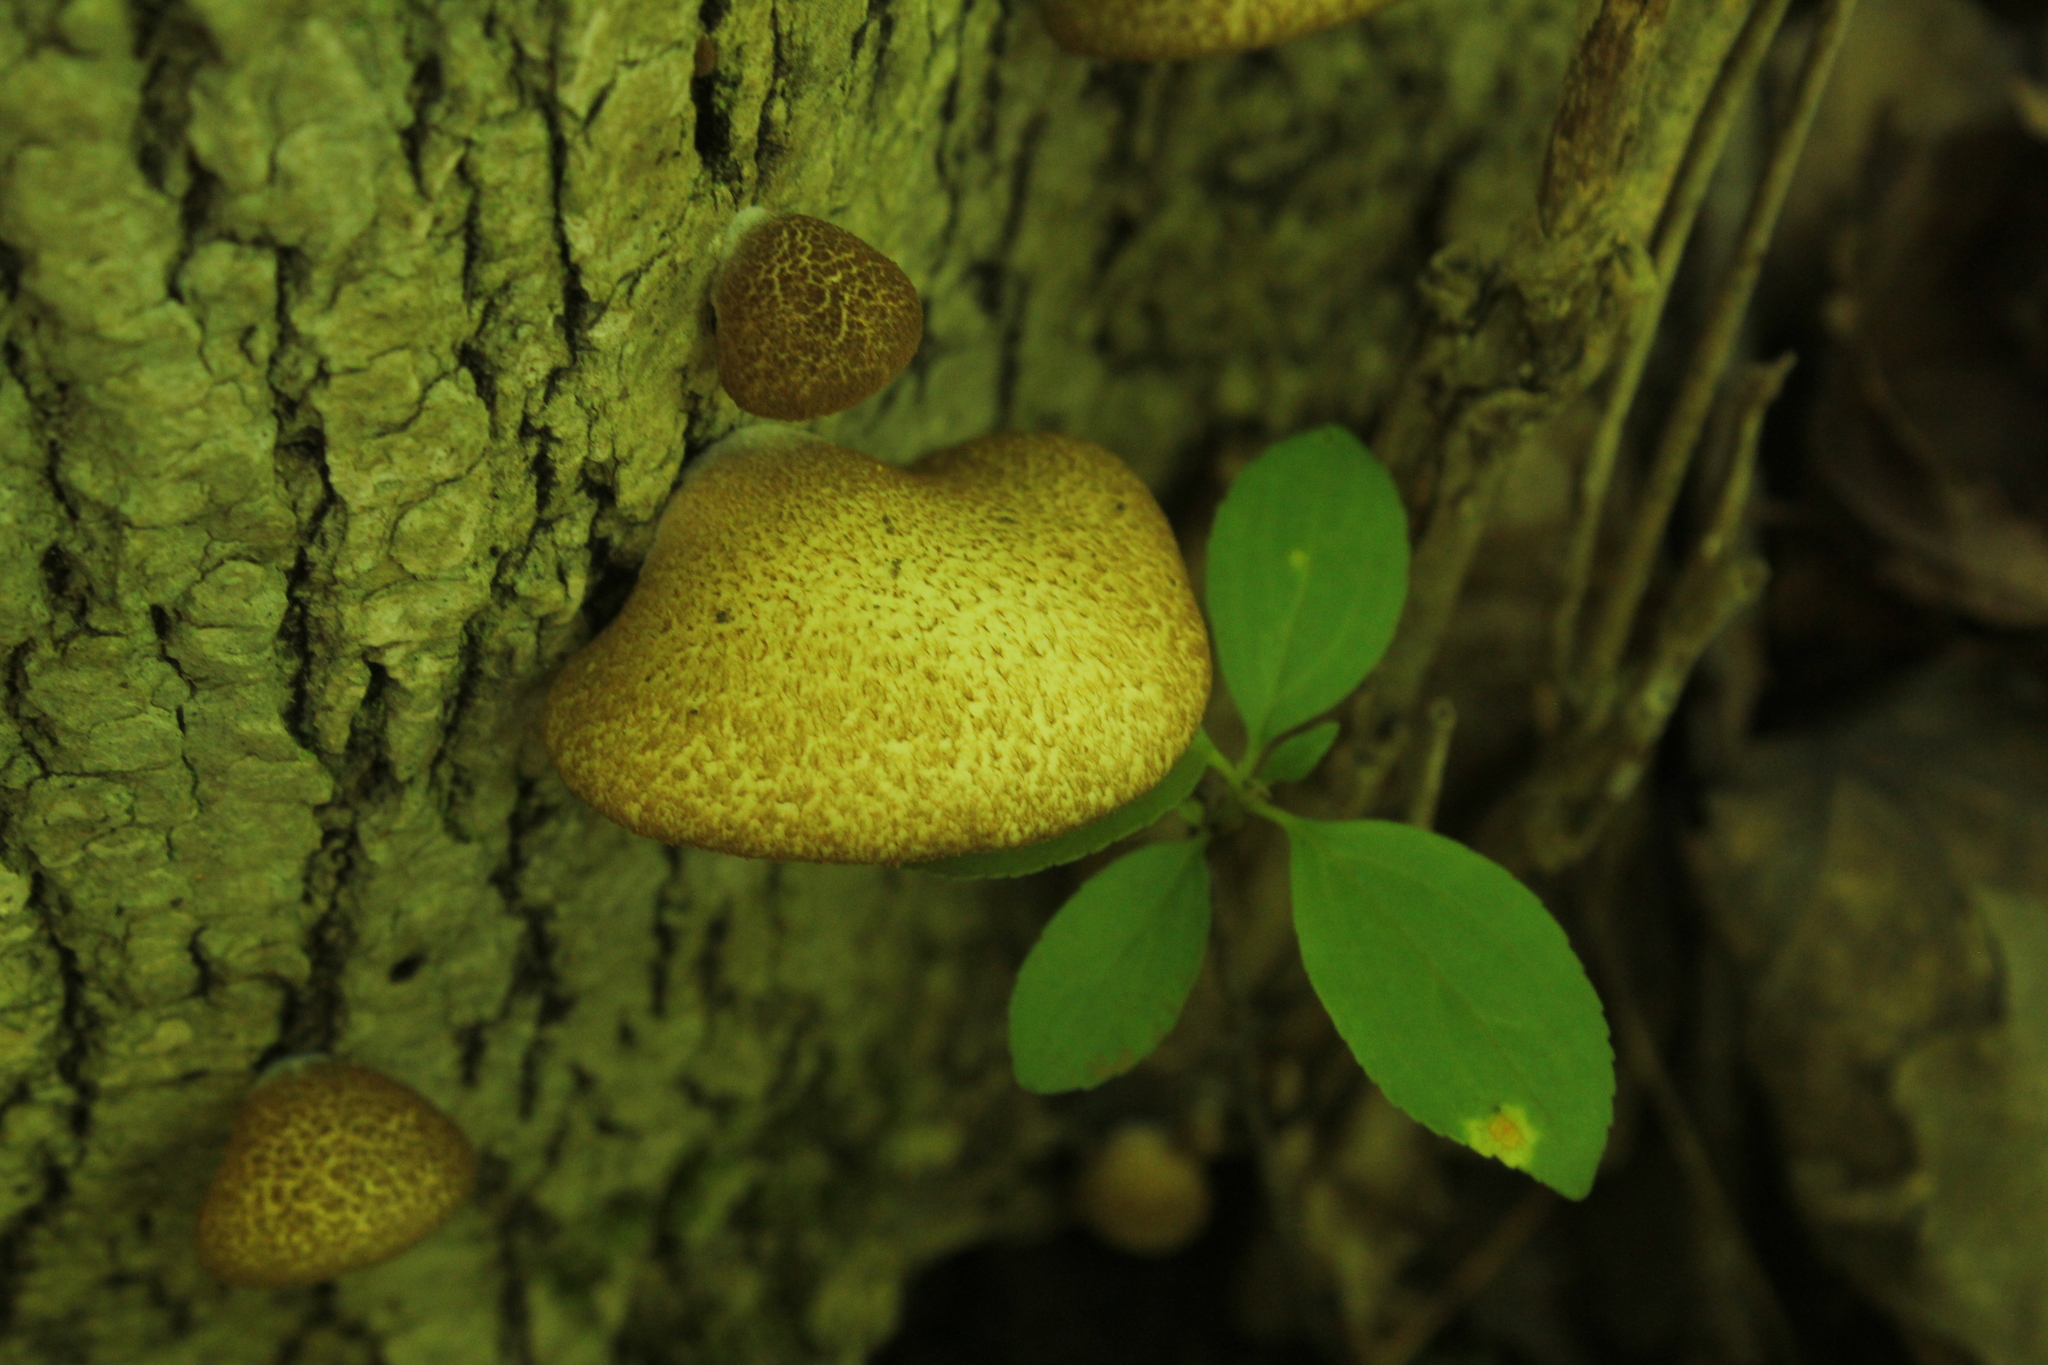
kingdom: Fungi
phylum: Basidiomycota
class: Agaricomycetes
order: Agaricales
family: Crepidotaceae
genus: Crepidotus
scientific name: Crepidotus calolepis
